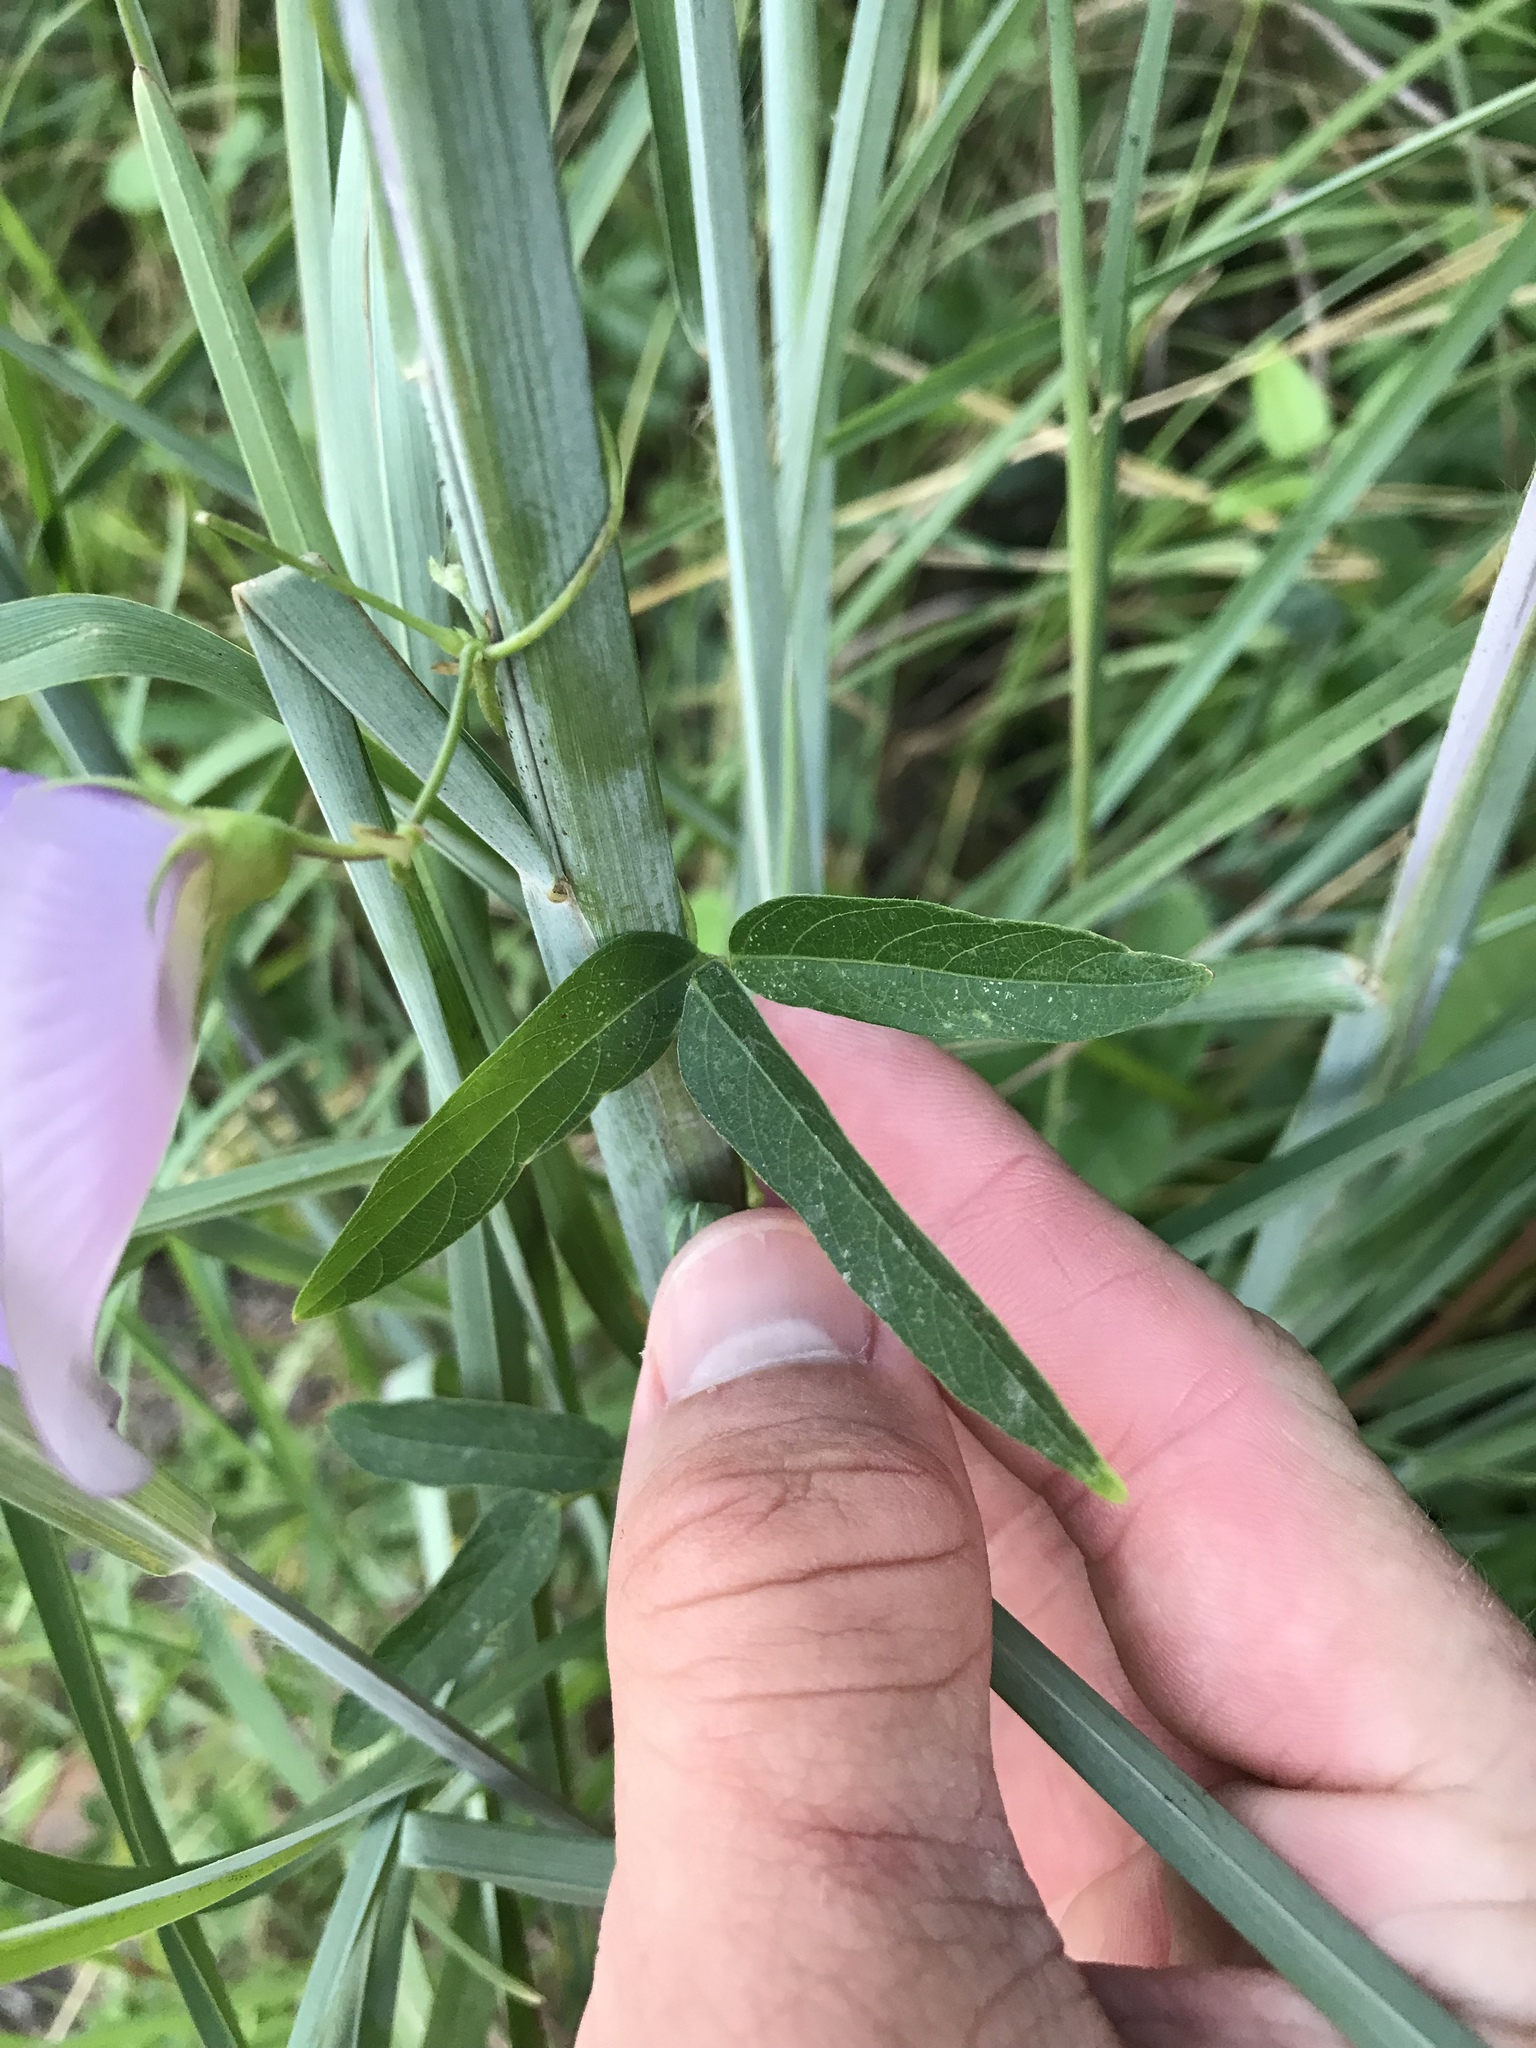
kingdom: Plantae
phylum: Tracheophyta
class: Magnoliopsida
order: Fabales
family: Fabaceae
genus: Centrosema
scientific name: Centrosema virginianum
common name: Butterfly-pea
